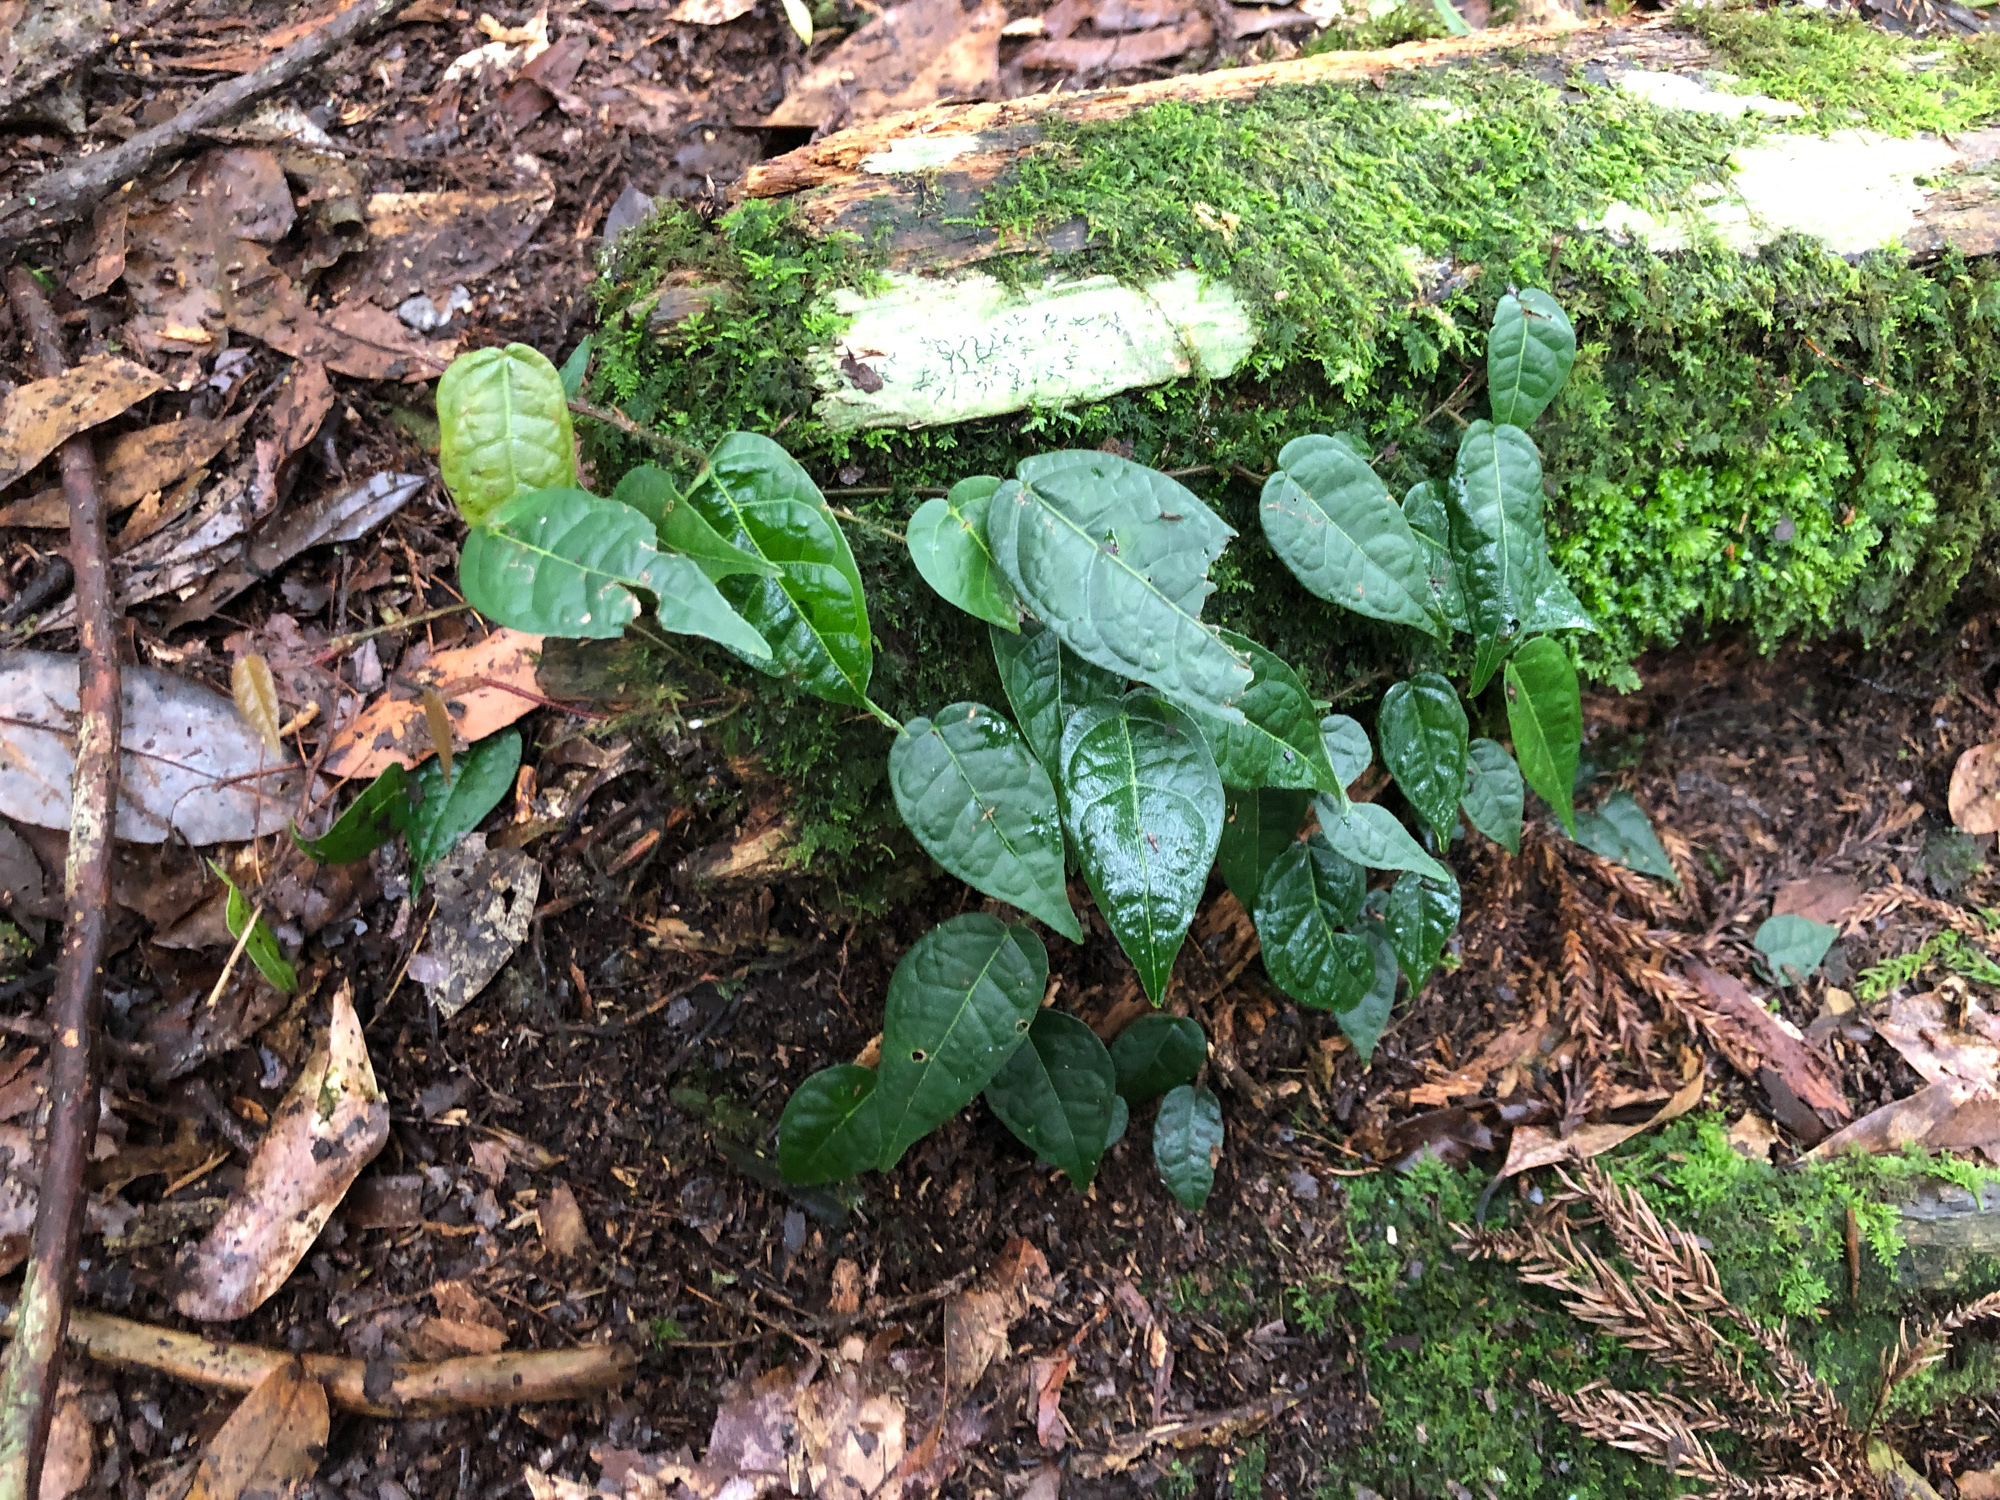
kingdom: Plantae
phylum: Tracheophyta
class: Magnoliopsida
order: Rosales
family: Moraceae
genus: Ficus
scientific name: Ficus sarmentosa
